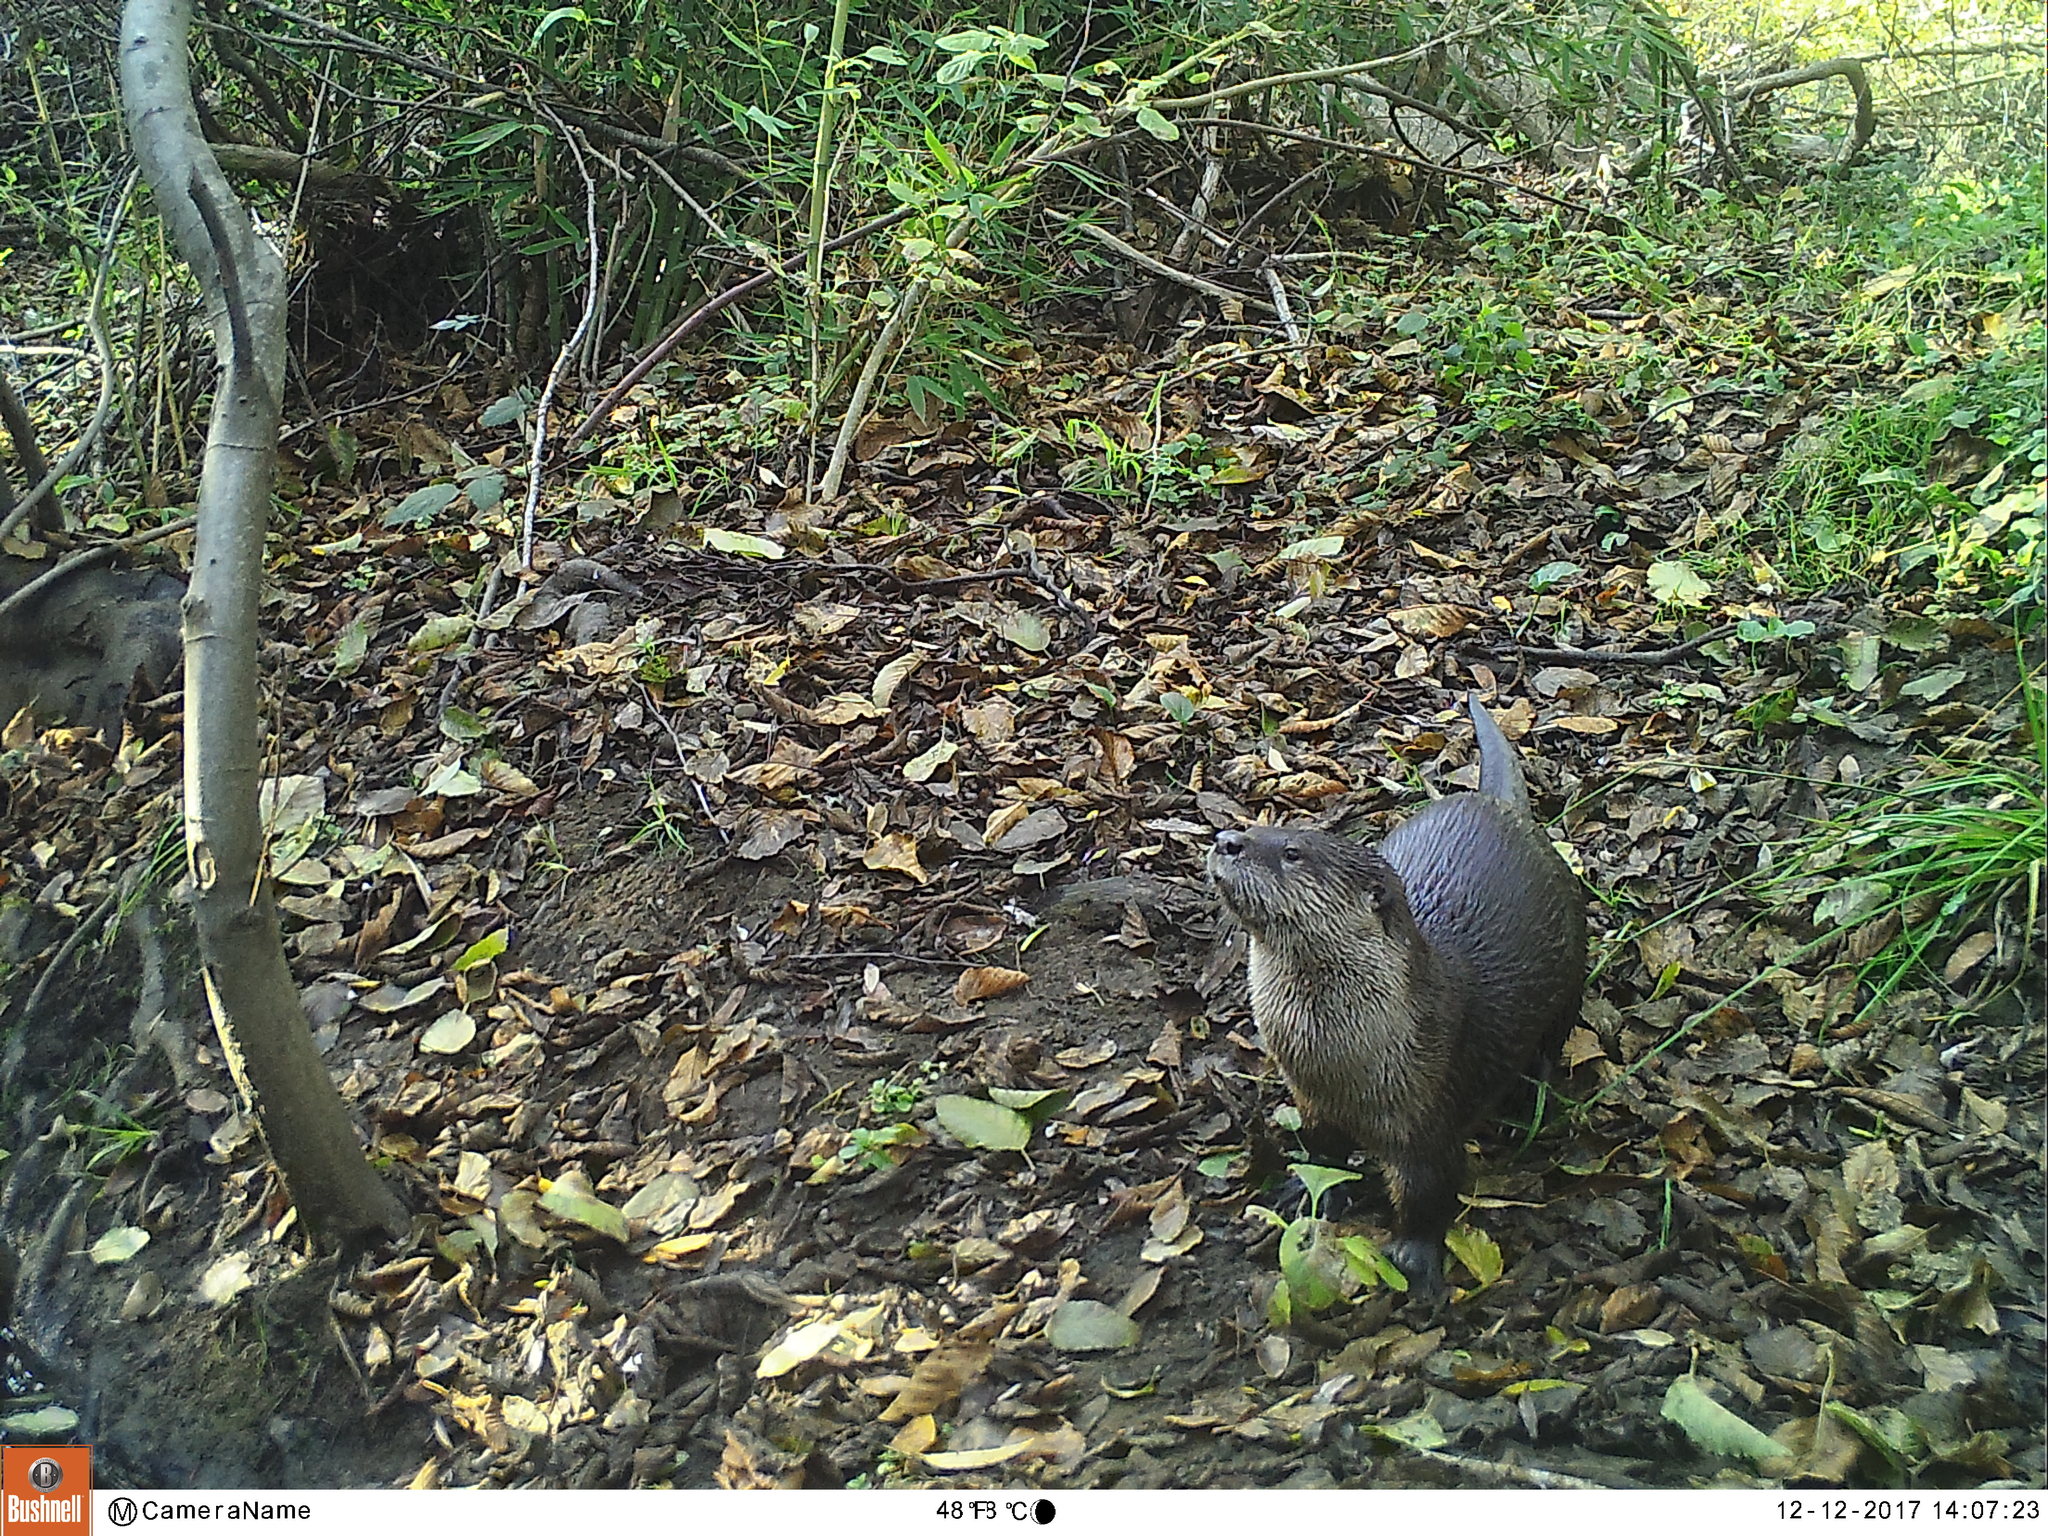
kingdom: Animalia
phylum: Chordata
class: Mammalia
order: Carnivora
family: Mustelidae
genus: Lontra
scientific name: Lontra canadensis
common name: North american river otter
